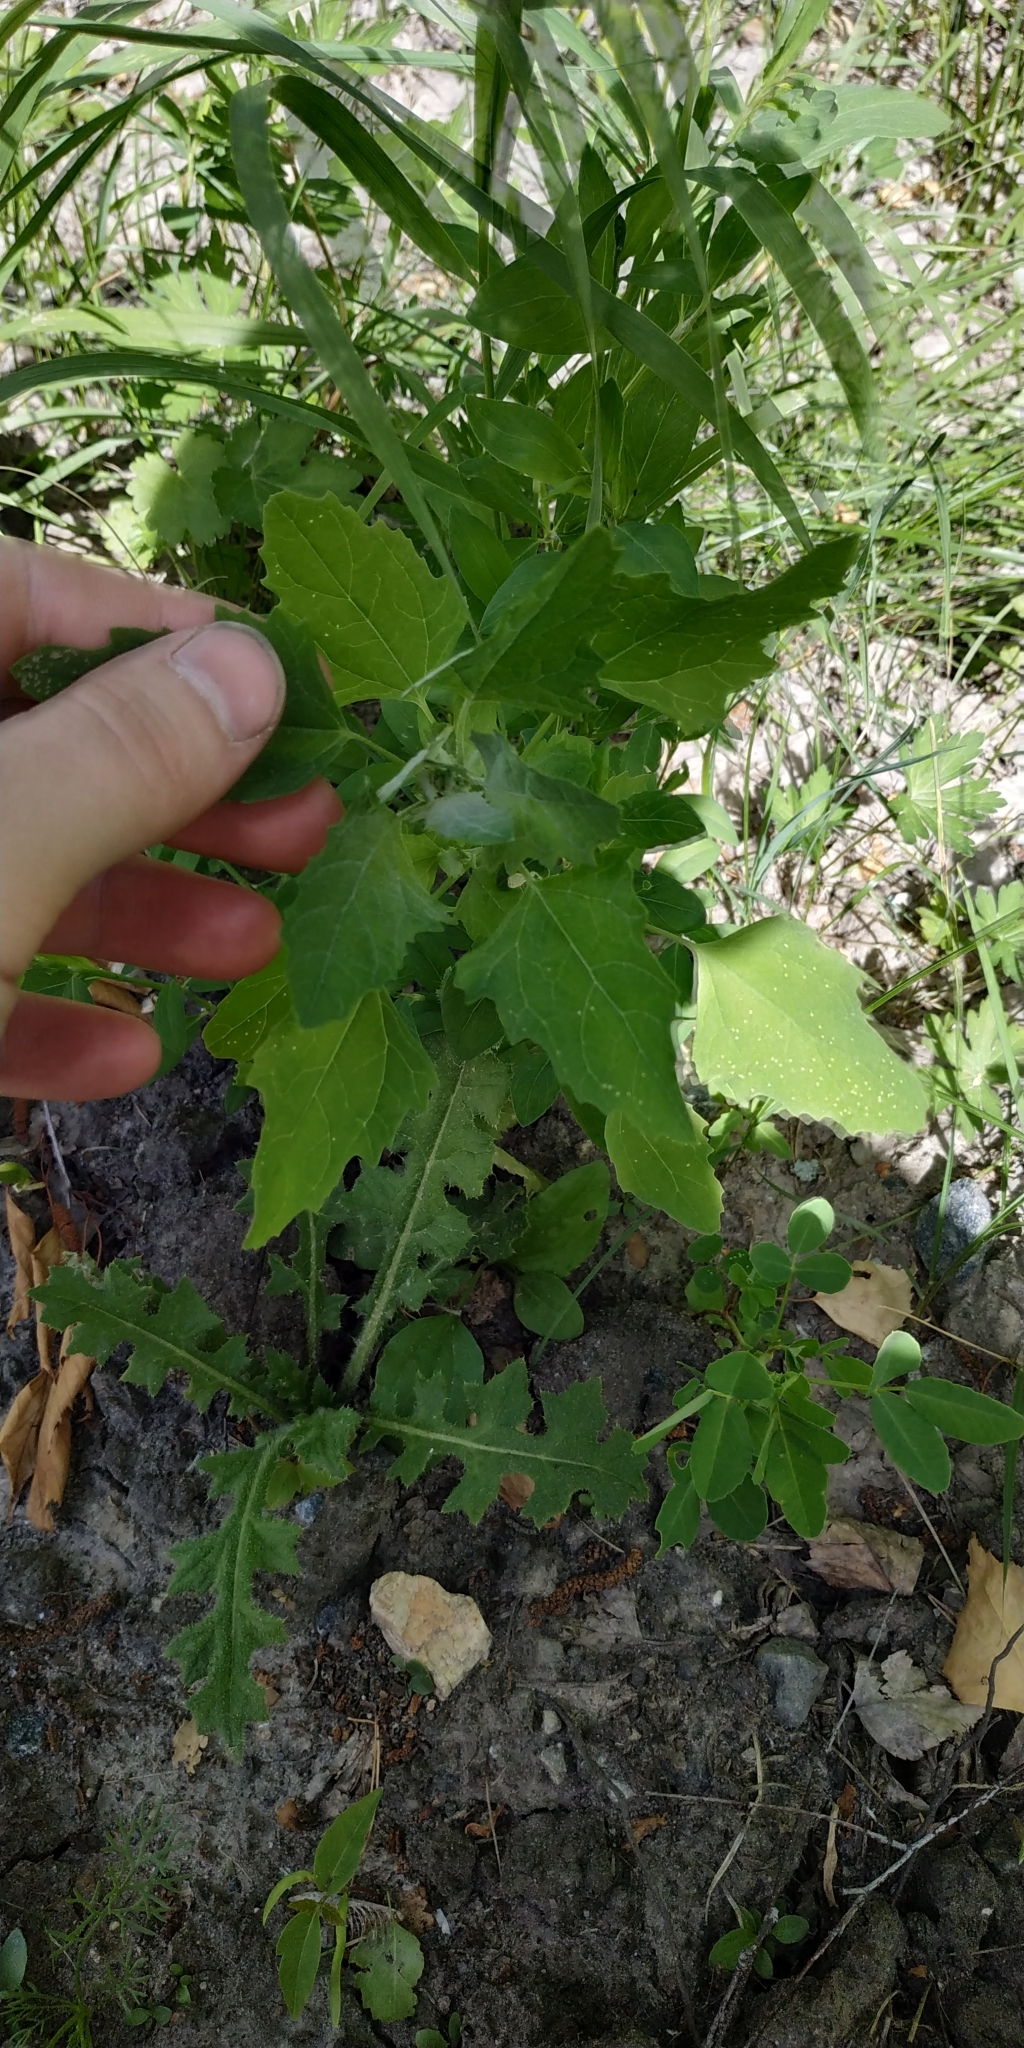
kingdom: Plantae
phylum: Tracheophyta
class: Magnoliopsida
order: Caryophyllales
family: Amaranthaceae
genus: Chenopodium
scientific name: Chenopodium album
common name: Fat-hen
